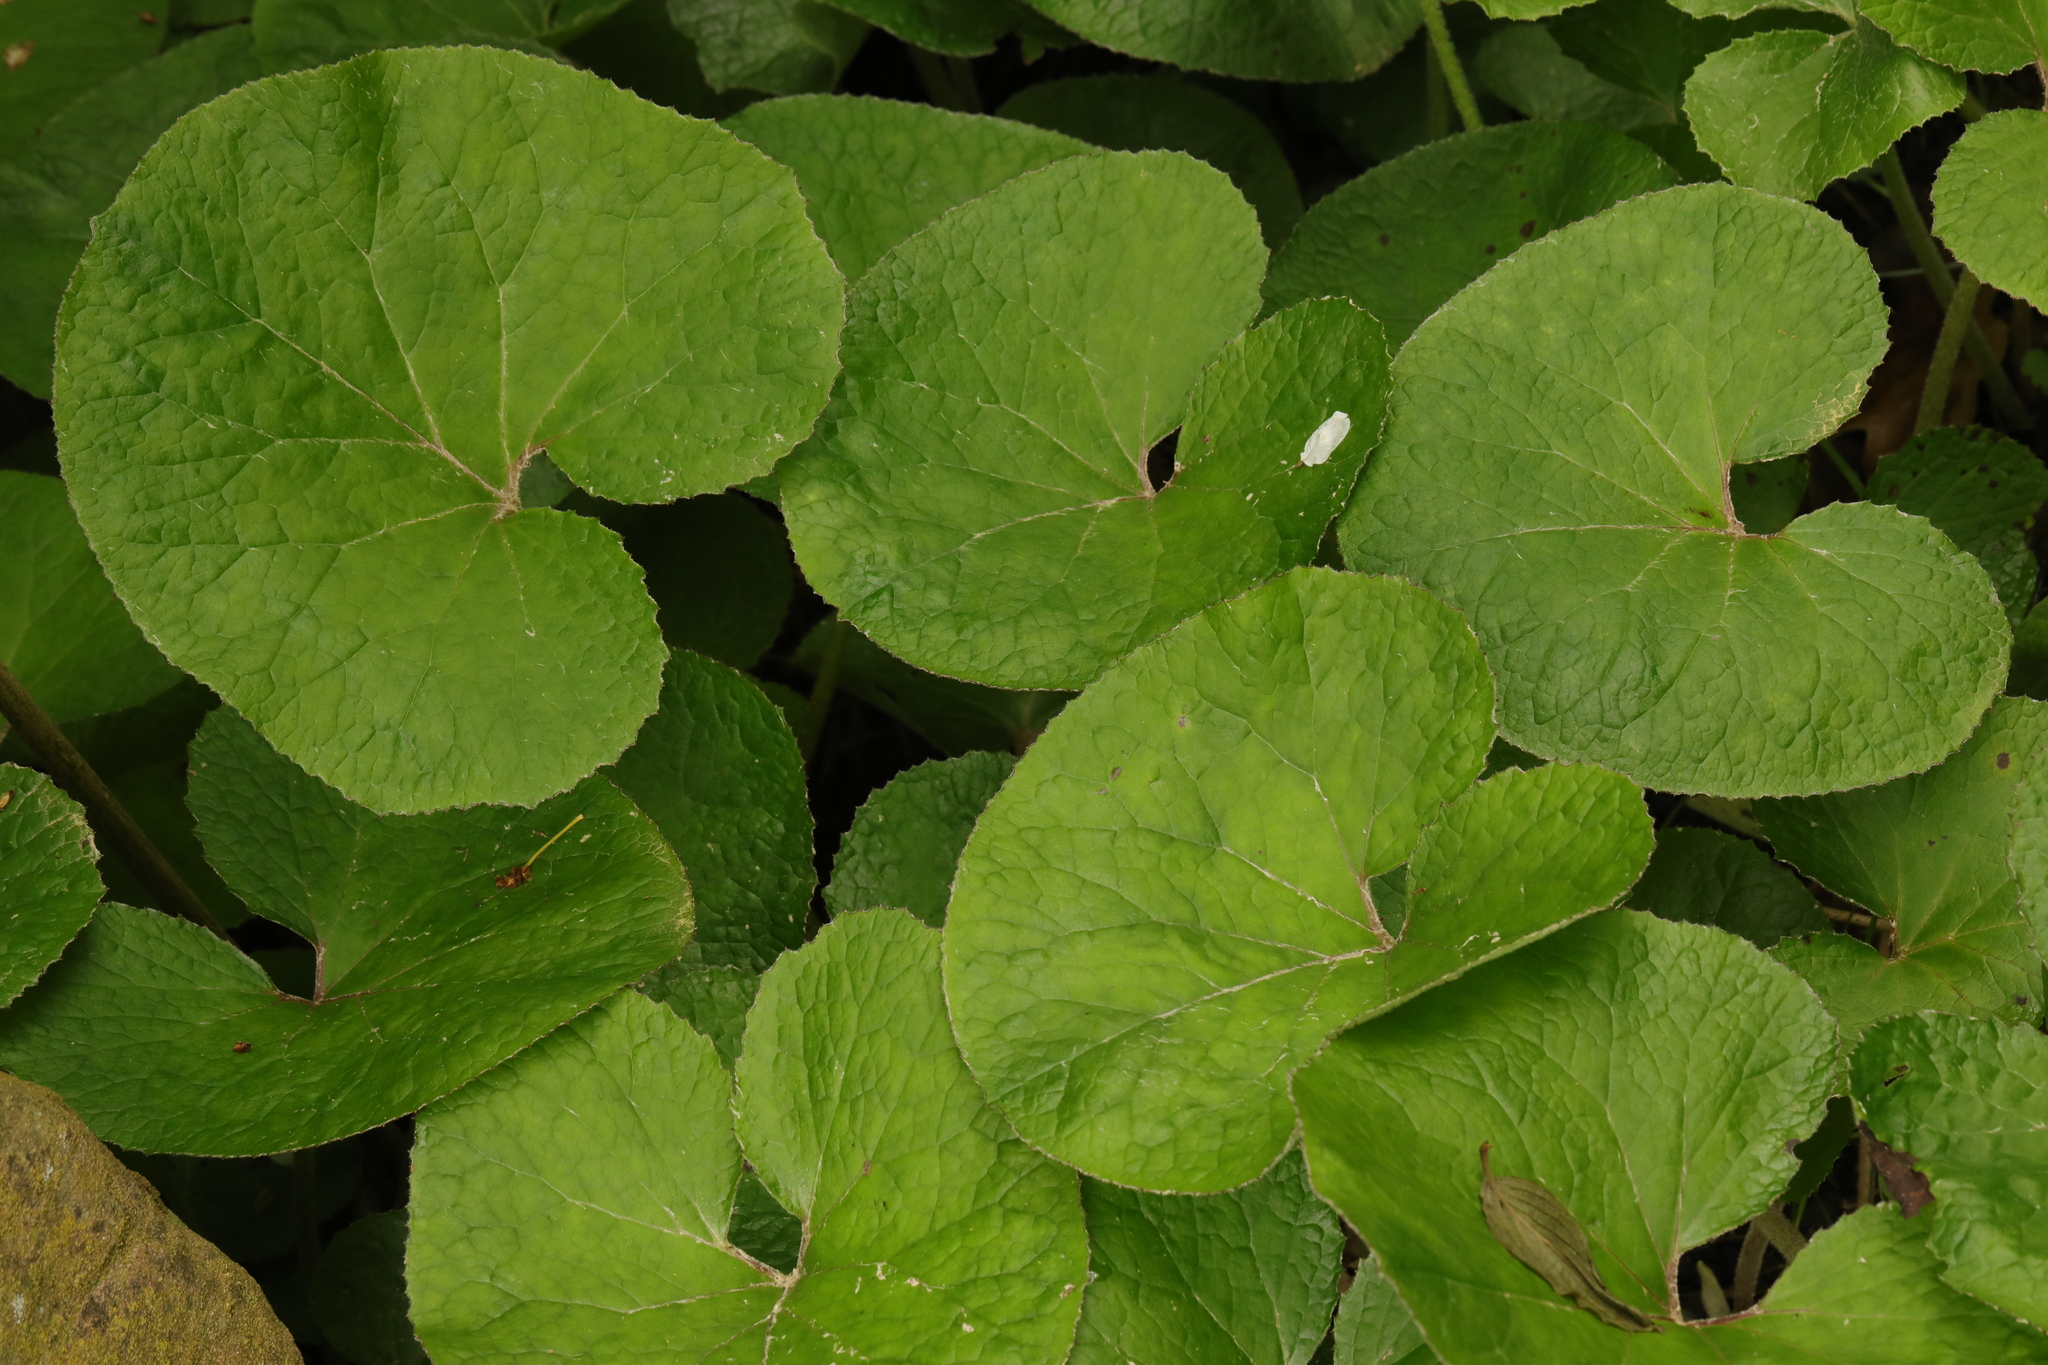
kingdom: Plantae
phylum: Tracheophyta
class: Magnoliopsida
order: Asterales
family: Asteraceae
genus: Petasites
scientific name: Petasites pyrenaicus
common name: Winter heliotrope
